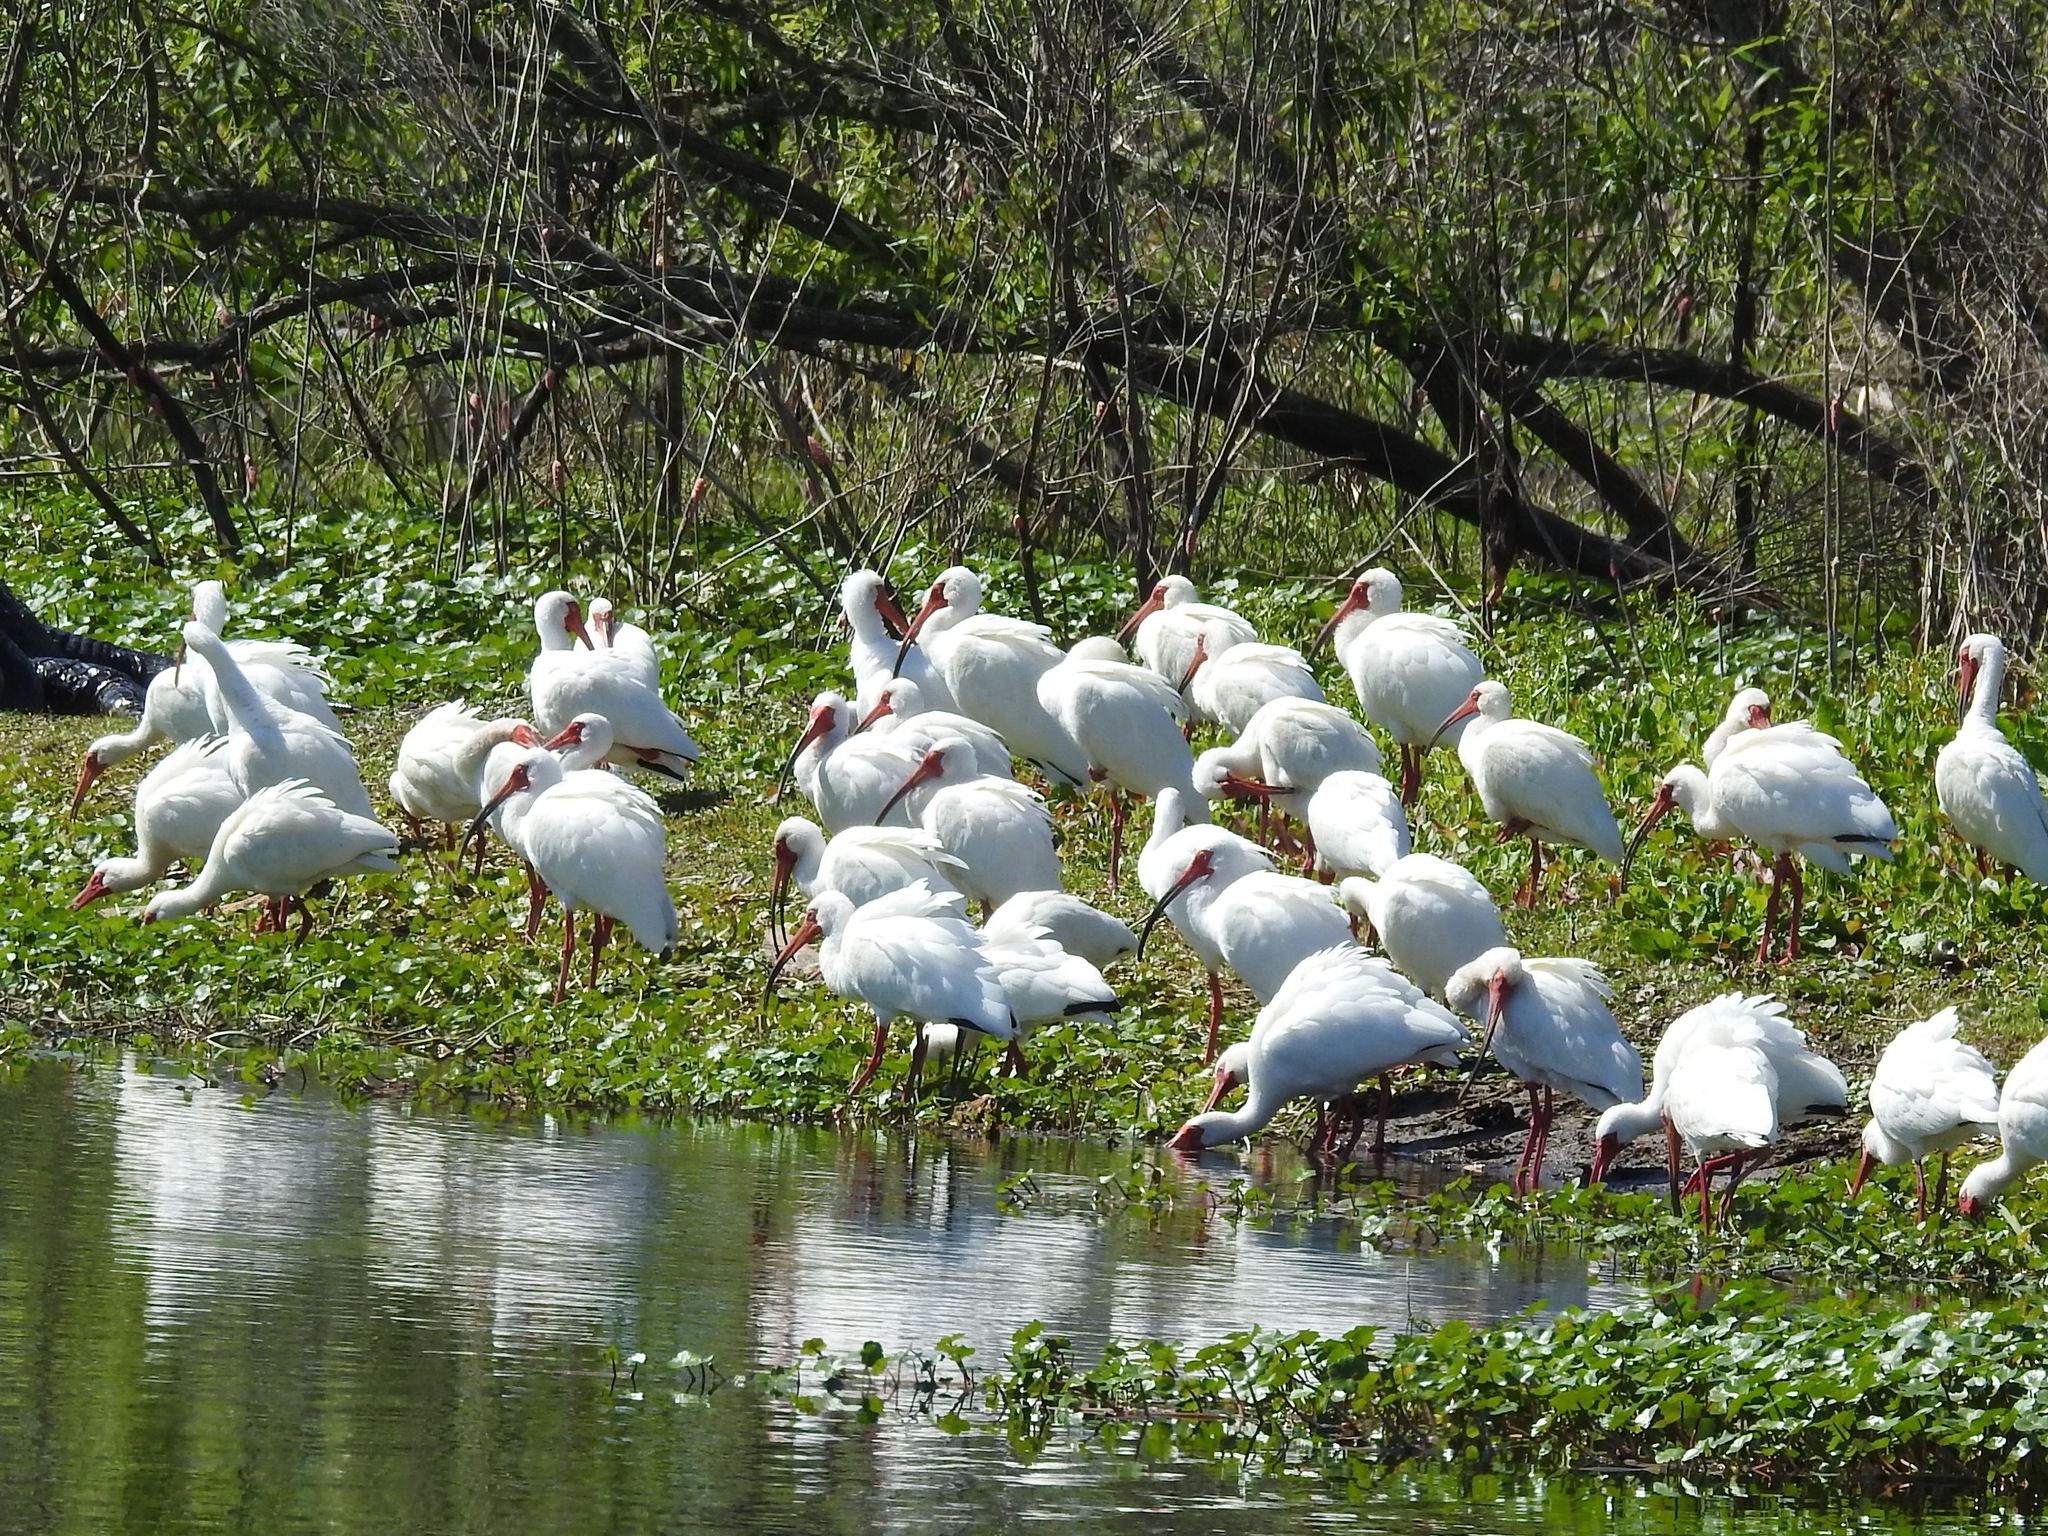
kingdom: Animalia
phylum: Chordata
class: Aves
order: Pelecaniformes
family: Threskiornithidae
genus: Eudocimus
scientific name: Eudocimus albus
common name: White ibis
